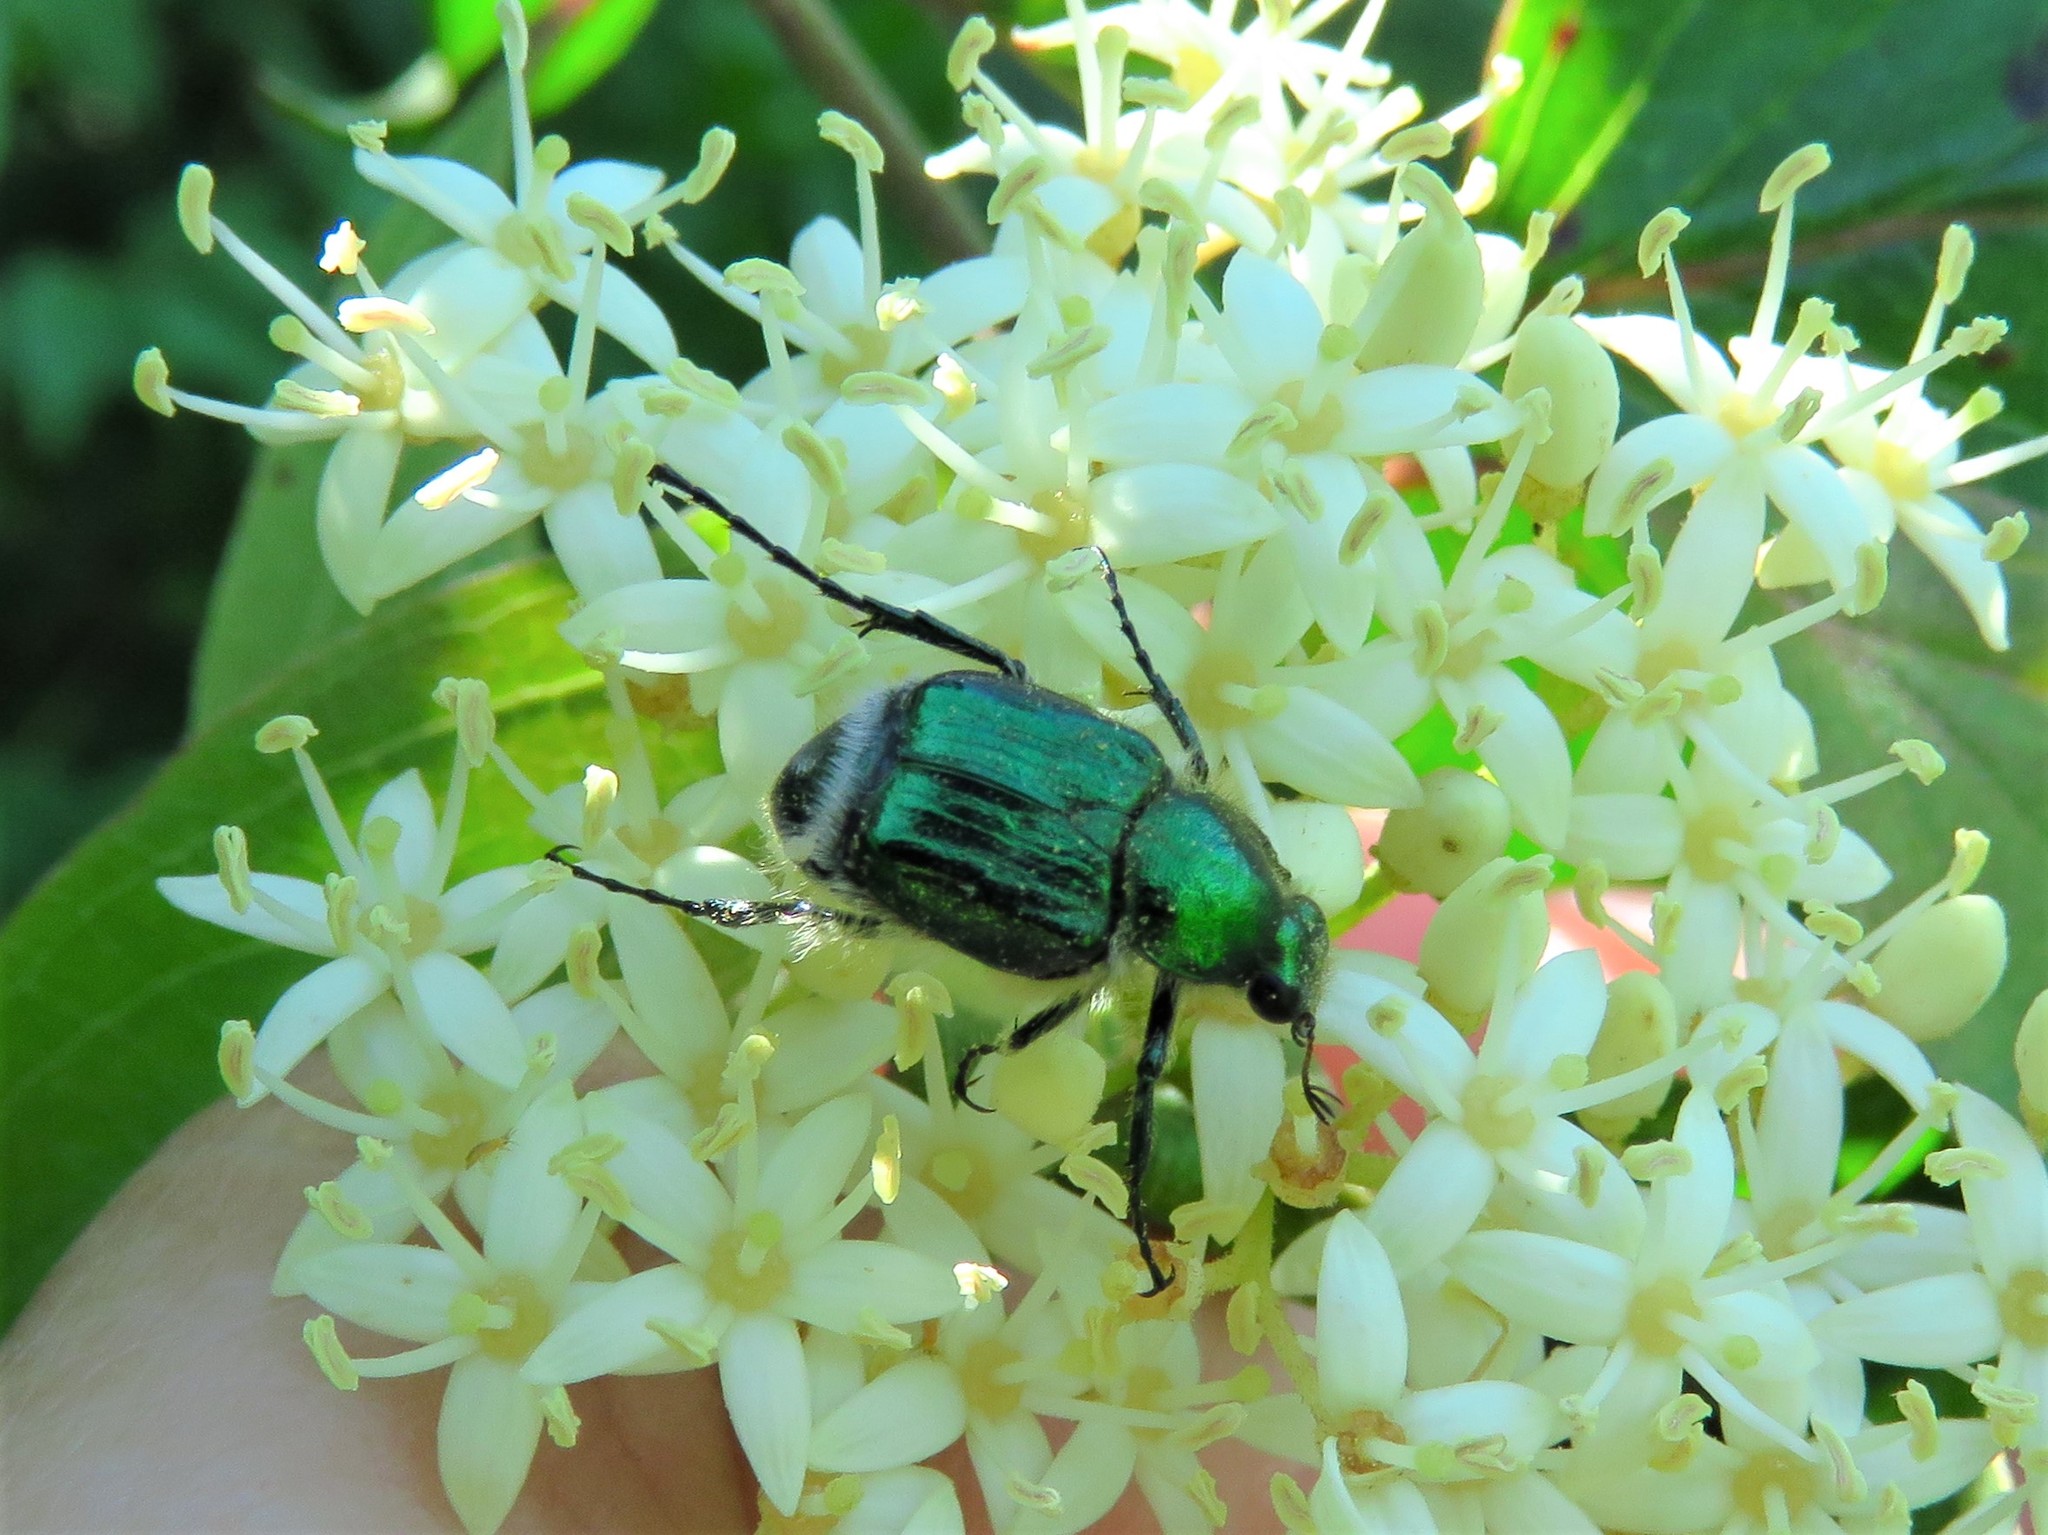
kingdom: Animalia
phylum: Arthropoda
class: Insecta
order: Coleoptera
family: Scarabaeidae
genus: Trichiotinus
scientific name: Trichiotinus lunulatus
